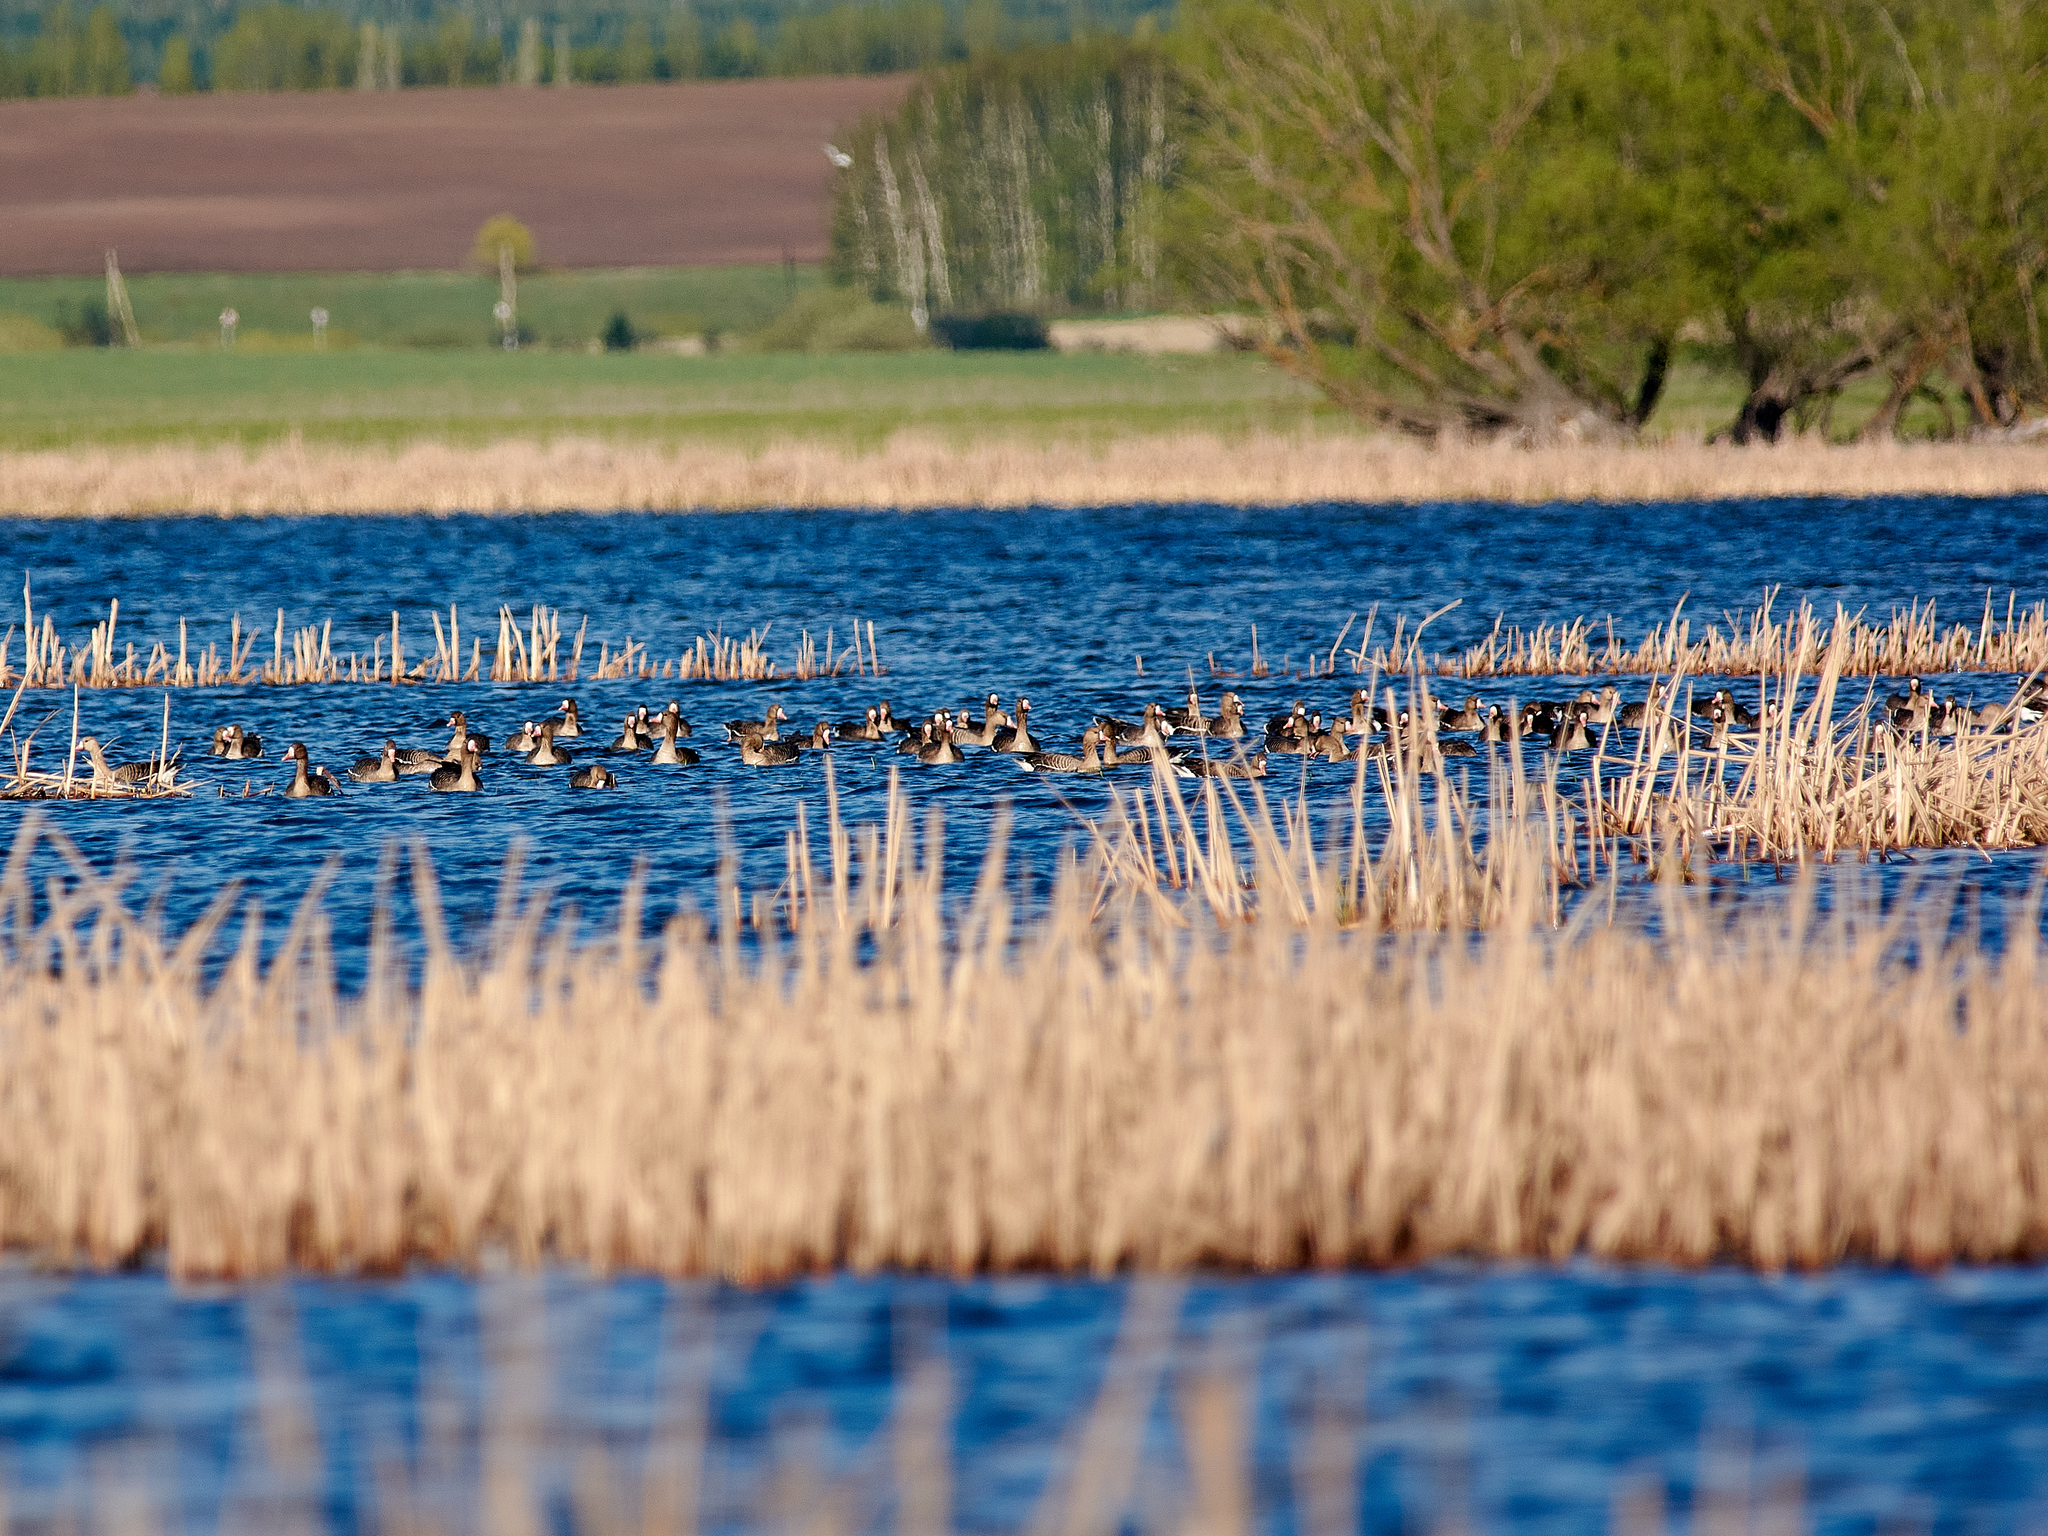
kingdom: Animalia
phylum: Chordata
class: Aves
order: Anseriformes
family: Anatidae
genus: Anser
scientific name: Anser albifrons
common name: Greater white-fronted goose
